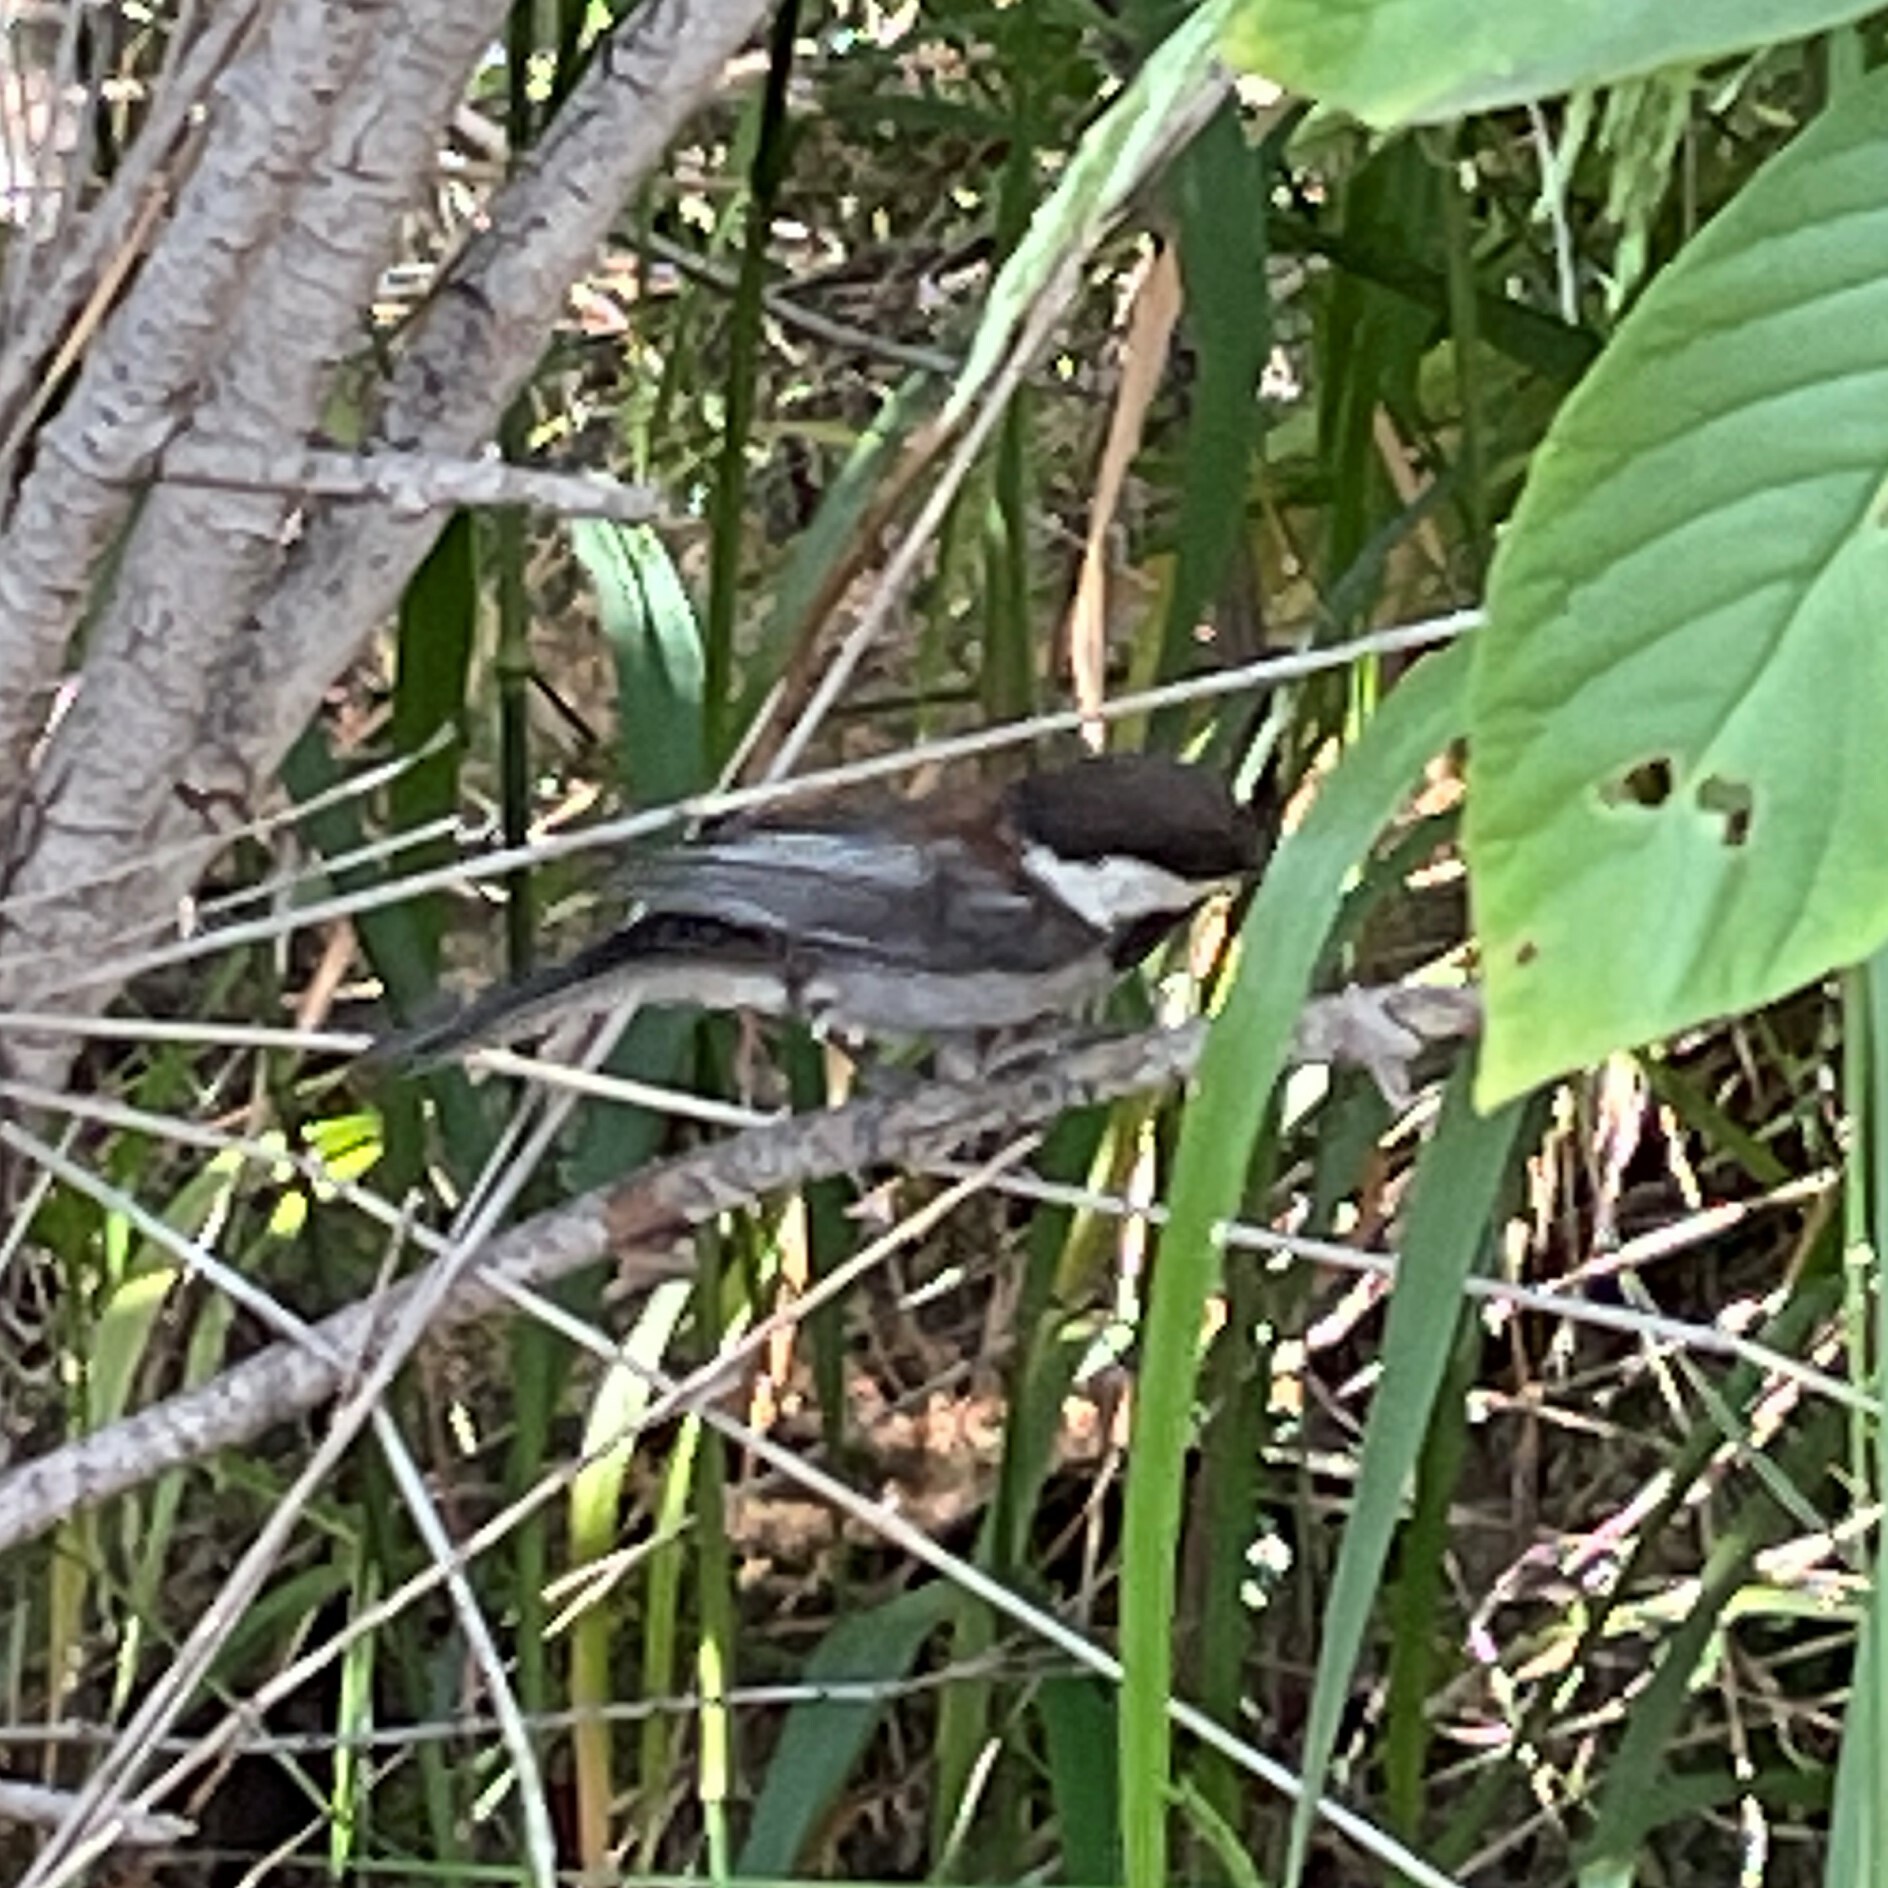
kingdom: Animalia
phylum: Chordata
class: Aves
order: Passeriformes
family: Paridae
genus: Poecile
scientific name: Poecile rufescens
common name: Chestnut-backed chickadee
